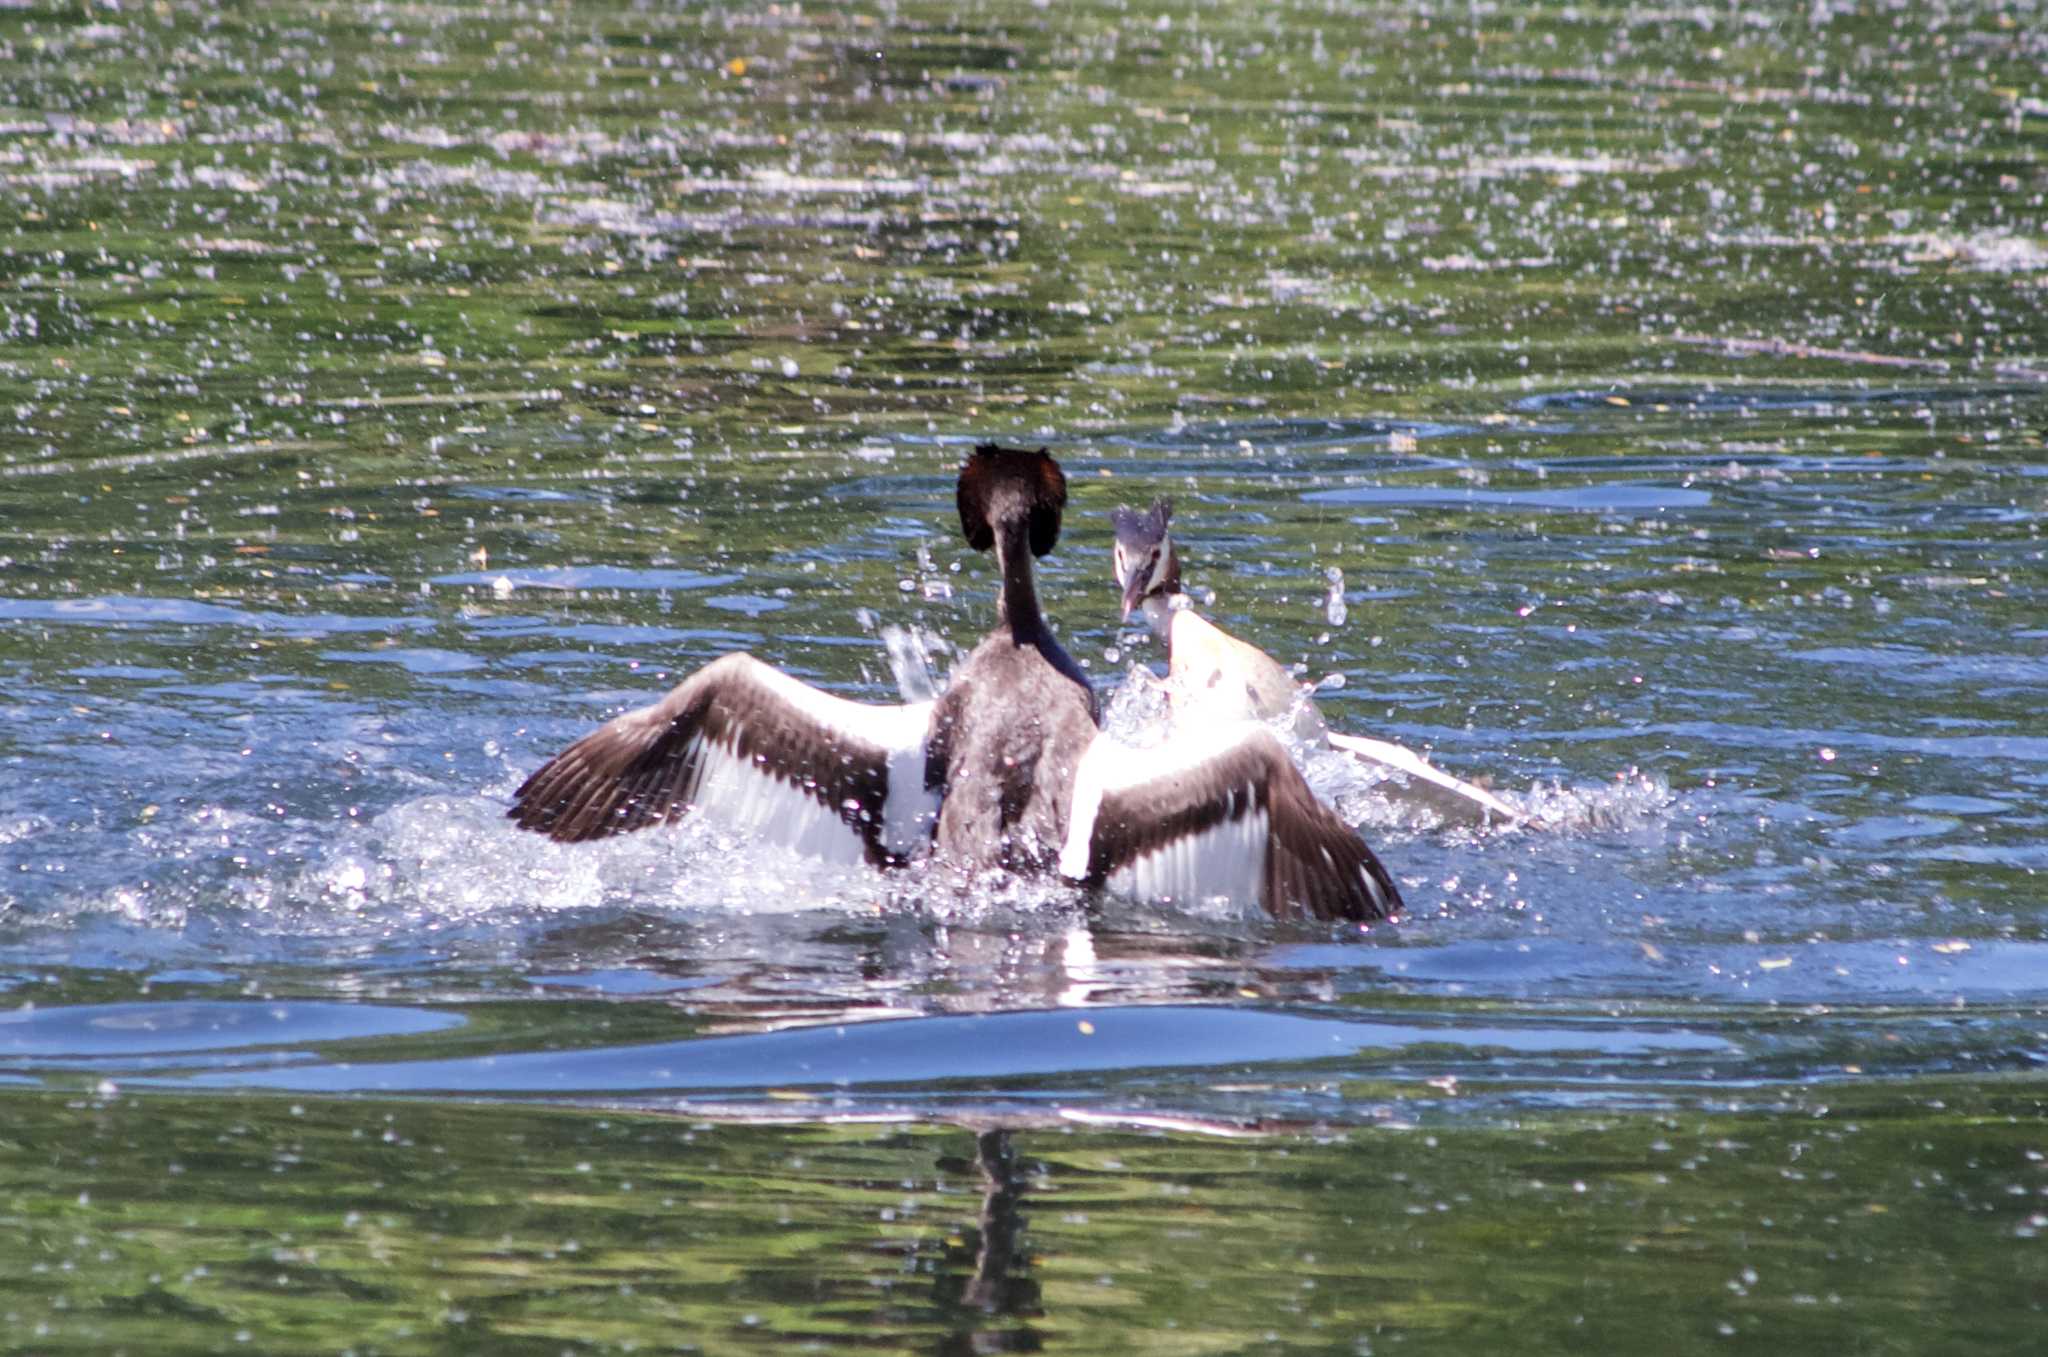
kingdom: Animalia
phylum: Chordata
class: Aves
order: Podicipediformes
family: Podicipedidae
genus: Podiceps
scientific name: Podiceps cristatus
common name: Great crested grebe
